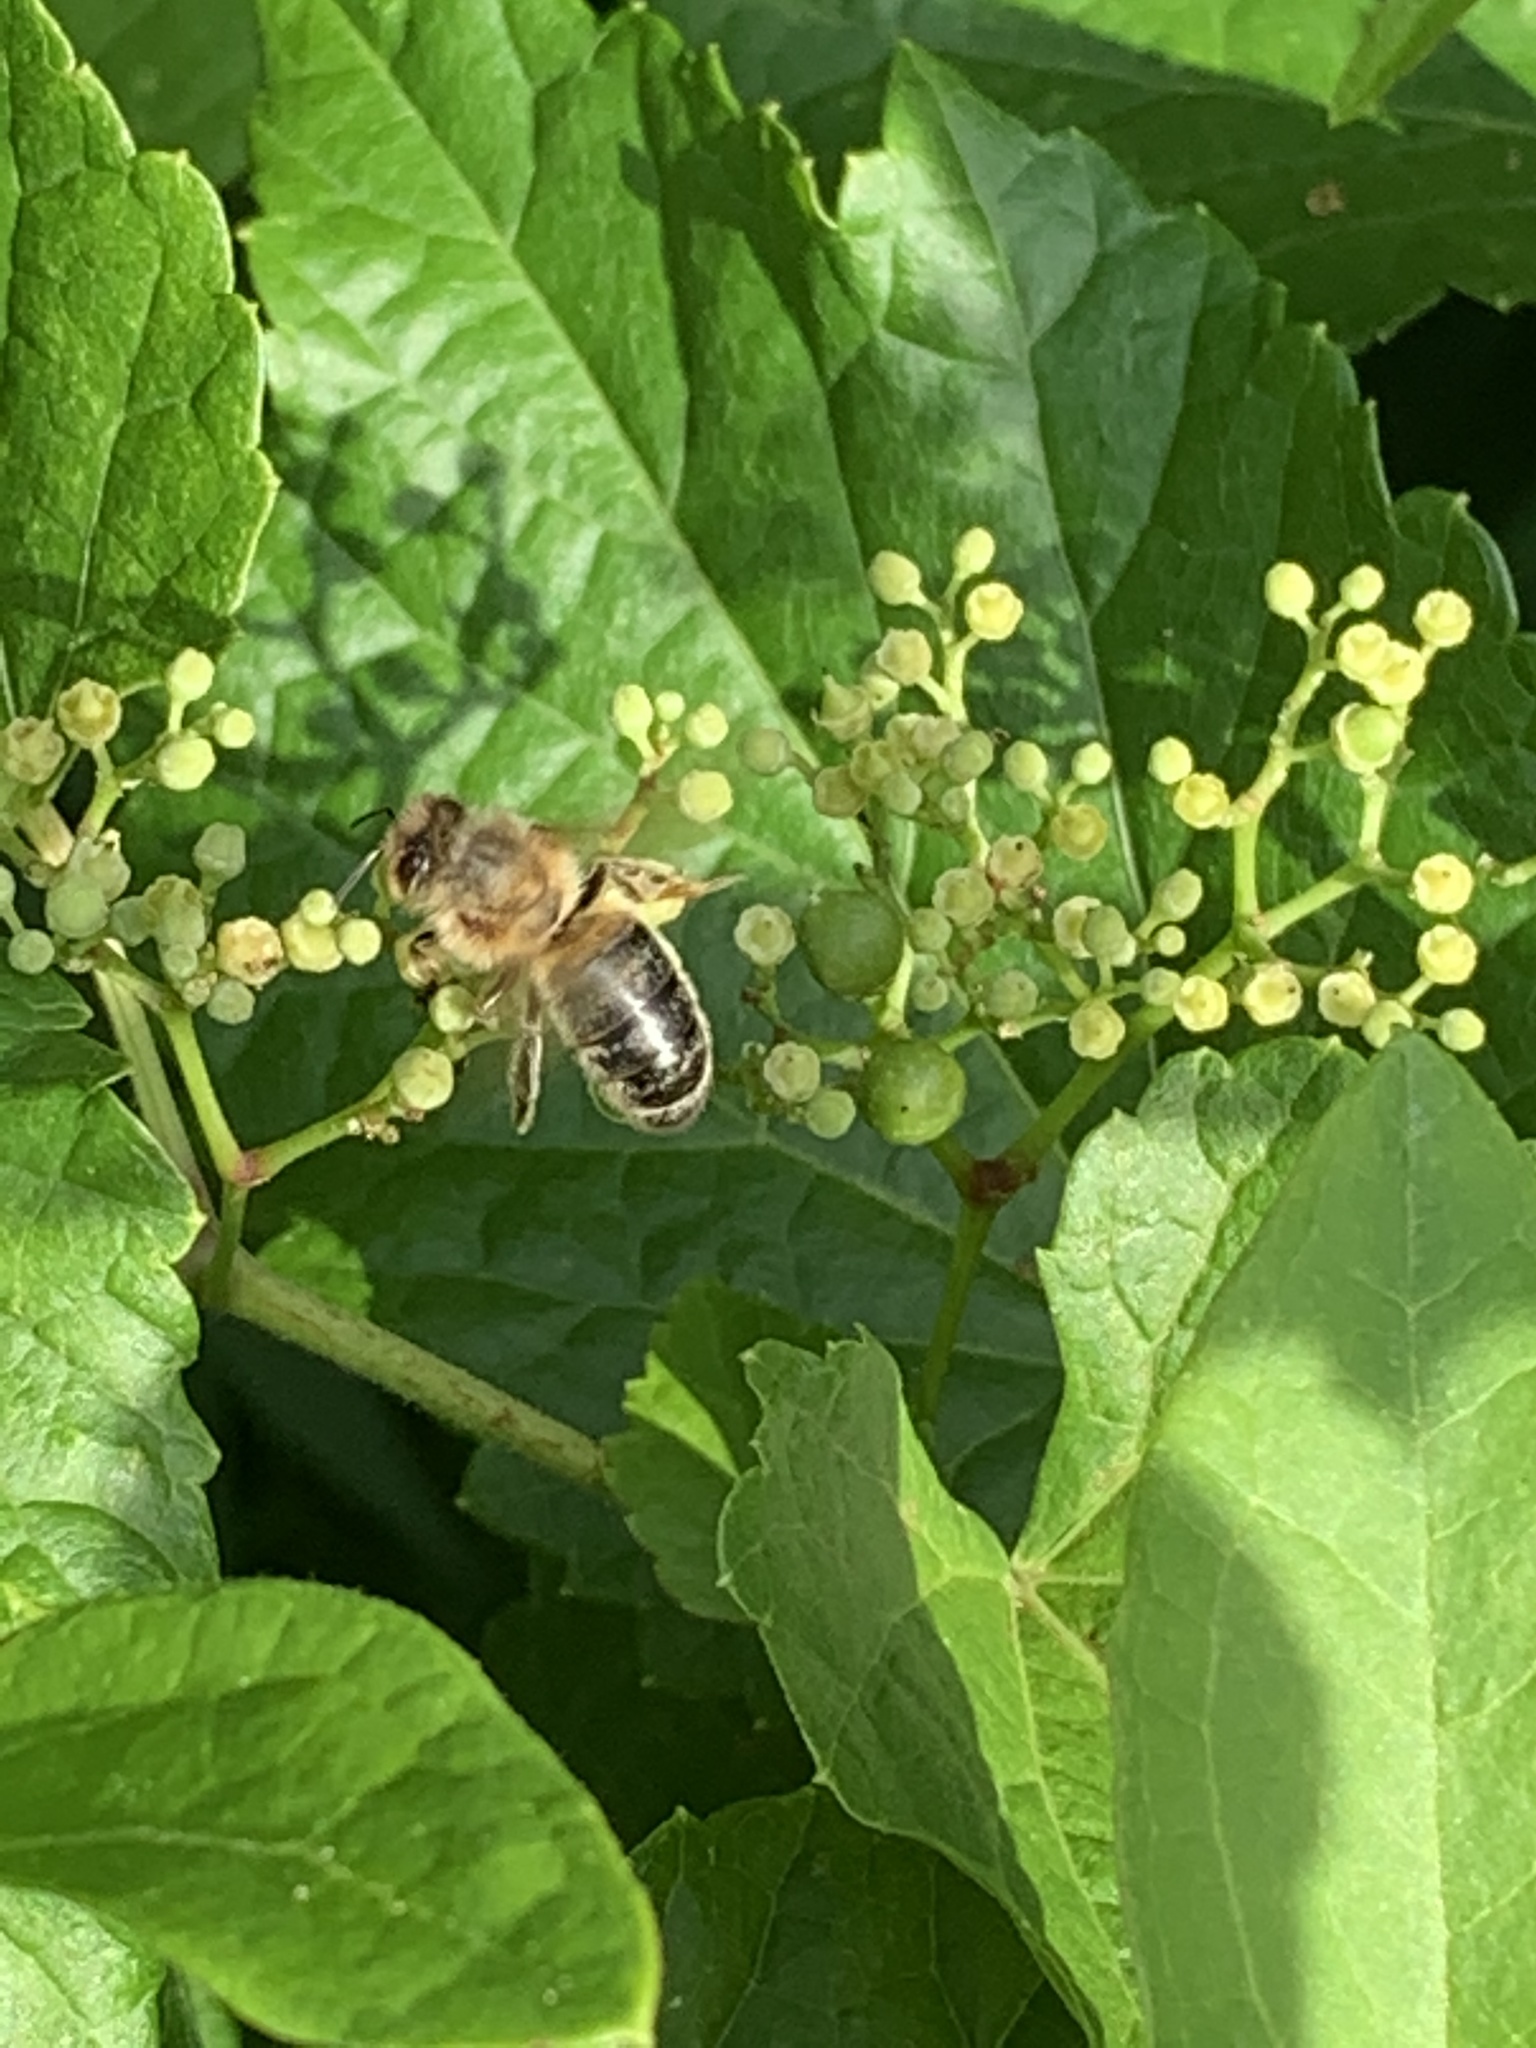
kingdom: Animalia
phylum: Arthropoda
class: Insecta
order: Hymenoptera
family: Apidae
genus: Apis
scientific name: Apis mellifera
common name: Honey bee
